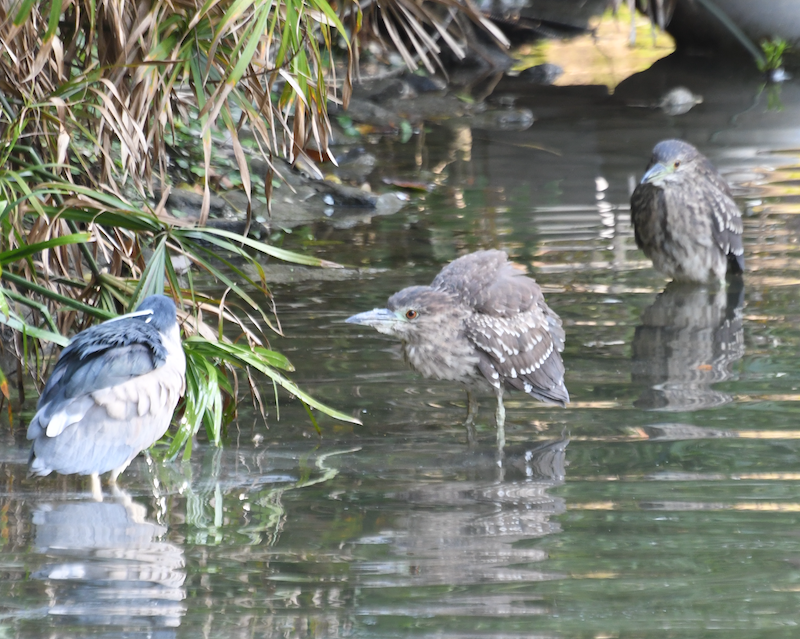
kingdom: Animalia
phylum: Chordata
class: Aves
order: Pelecaniformes
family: Ardeidae
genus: Nycticorax
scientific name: Nycticorax nycticorax
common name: Black-crowned night heron
